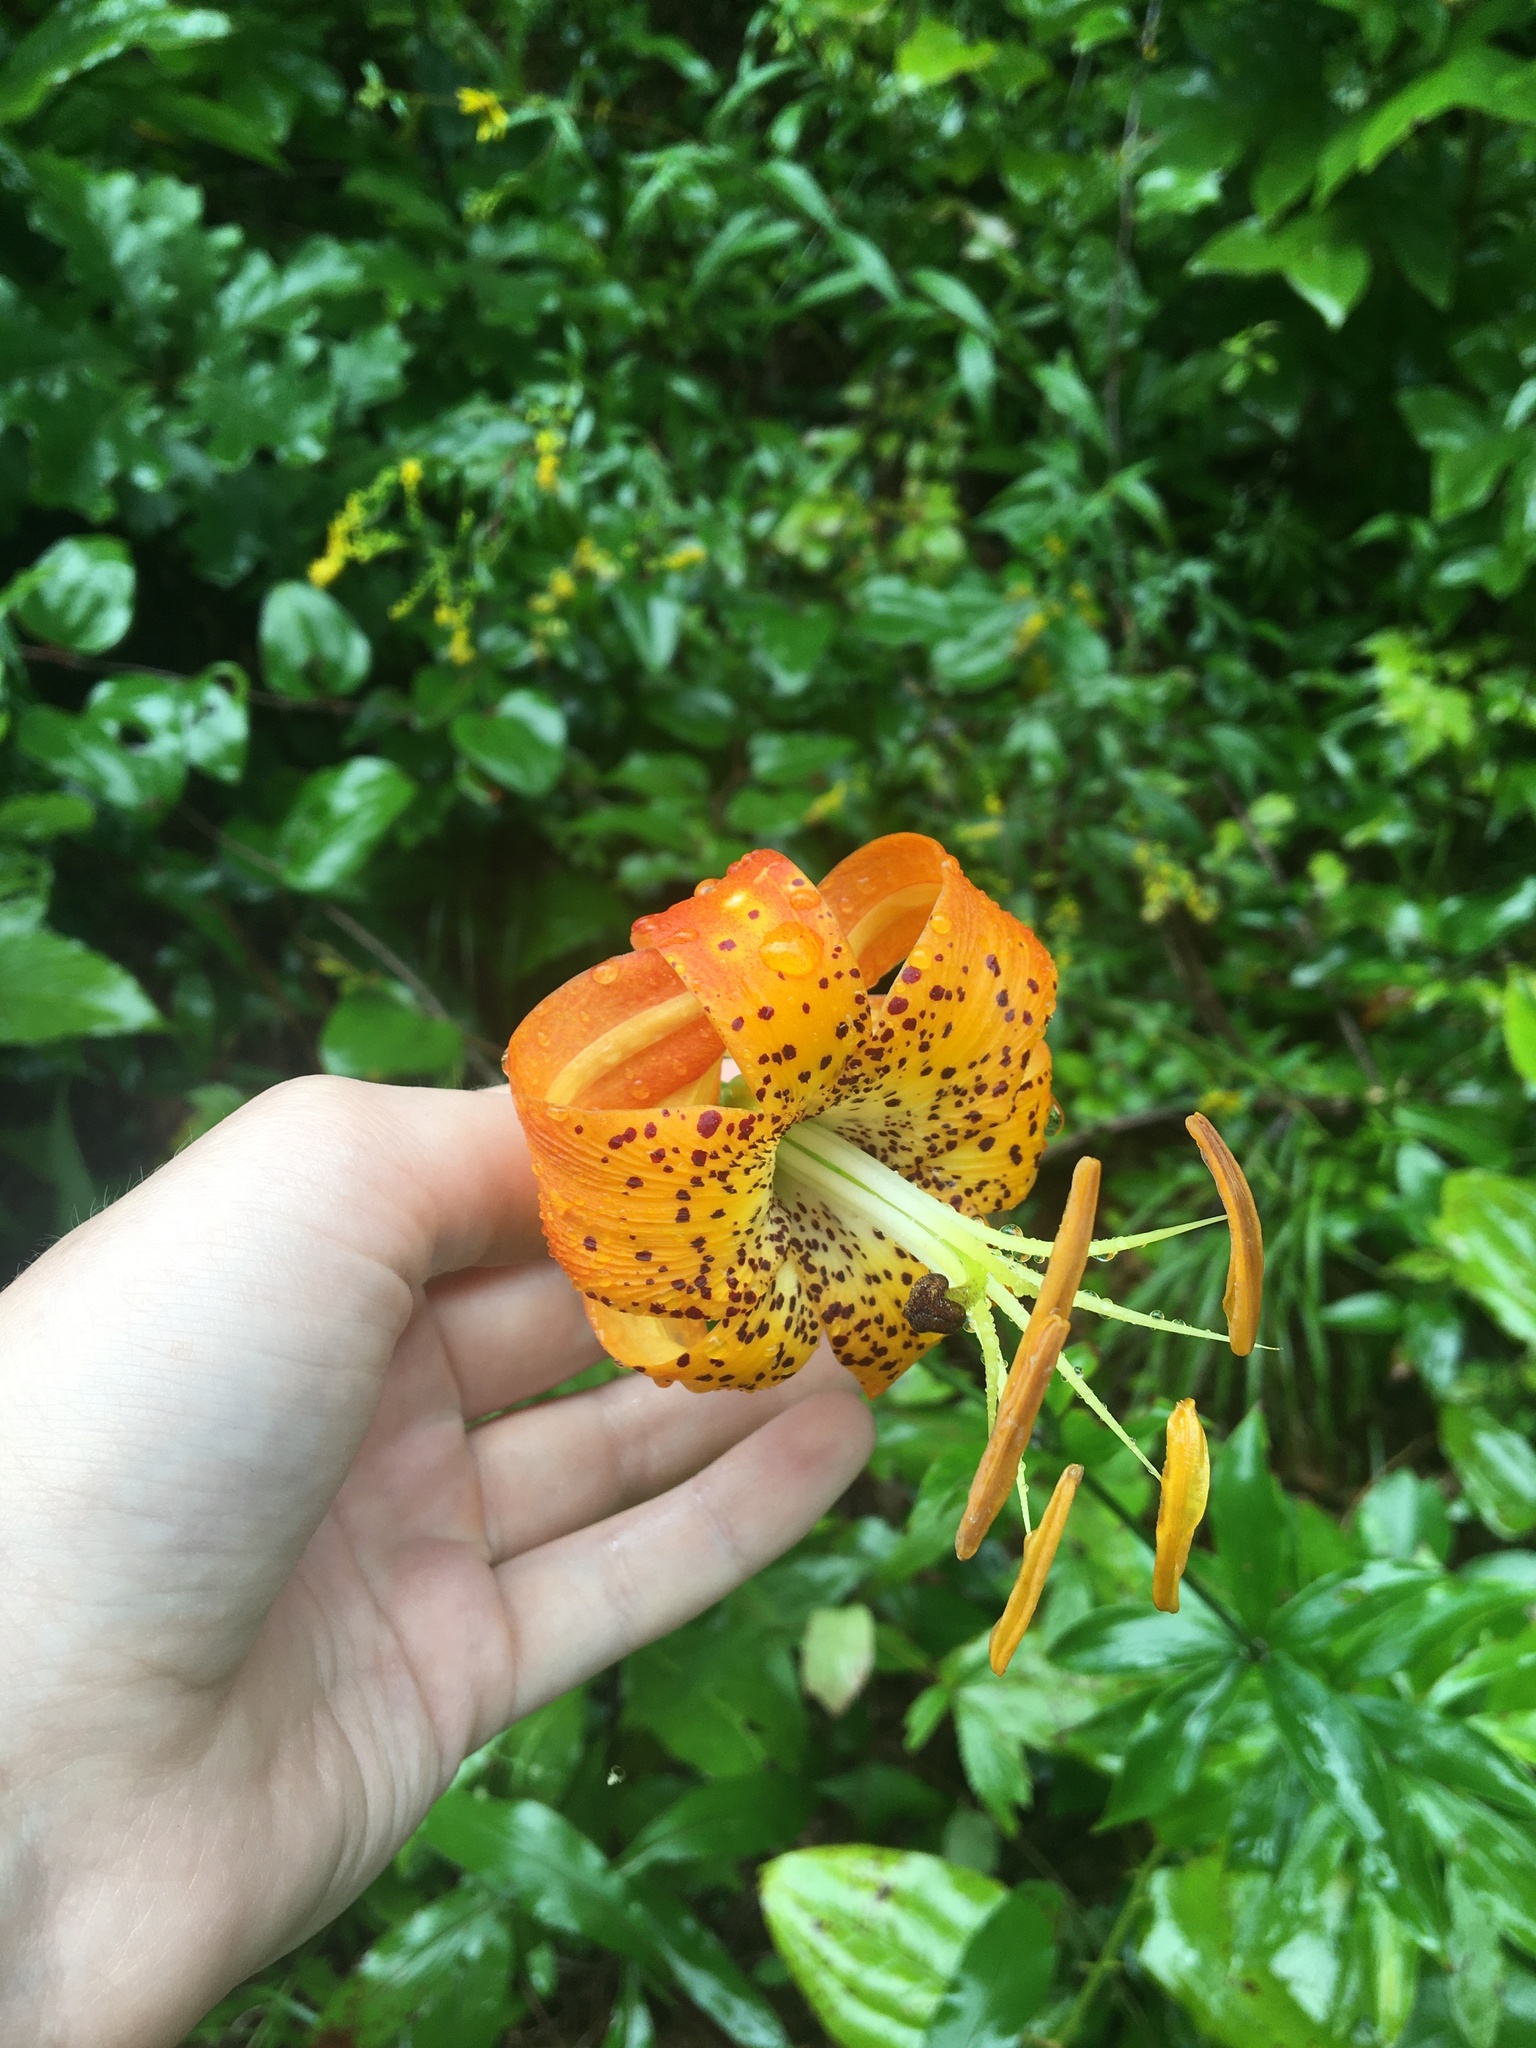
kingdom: Plantae
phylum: Tracheophyta
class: Liliopsida
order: Liliales
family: Liliaceae
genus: Lilium
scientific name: Lilium michauxii
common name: Carolina lily
